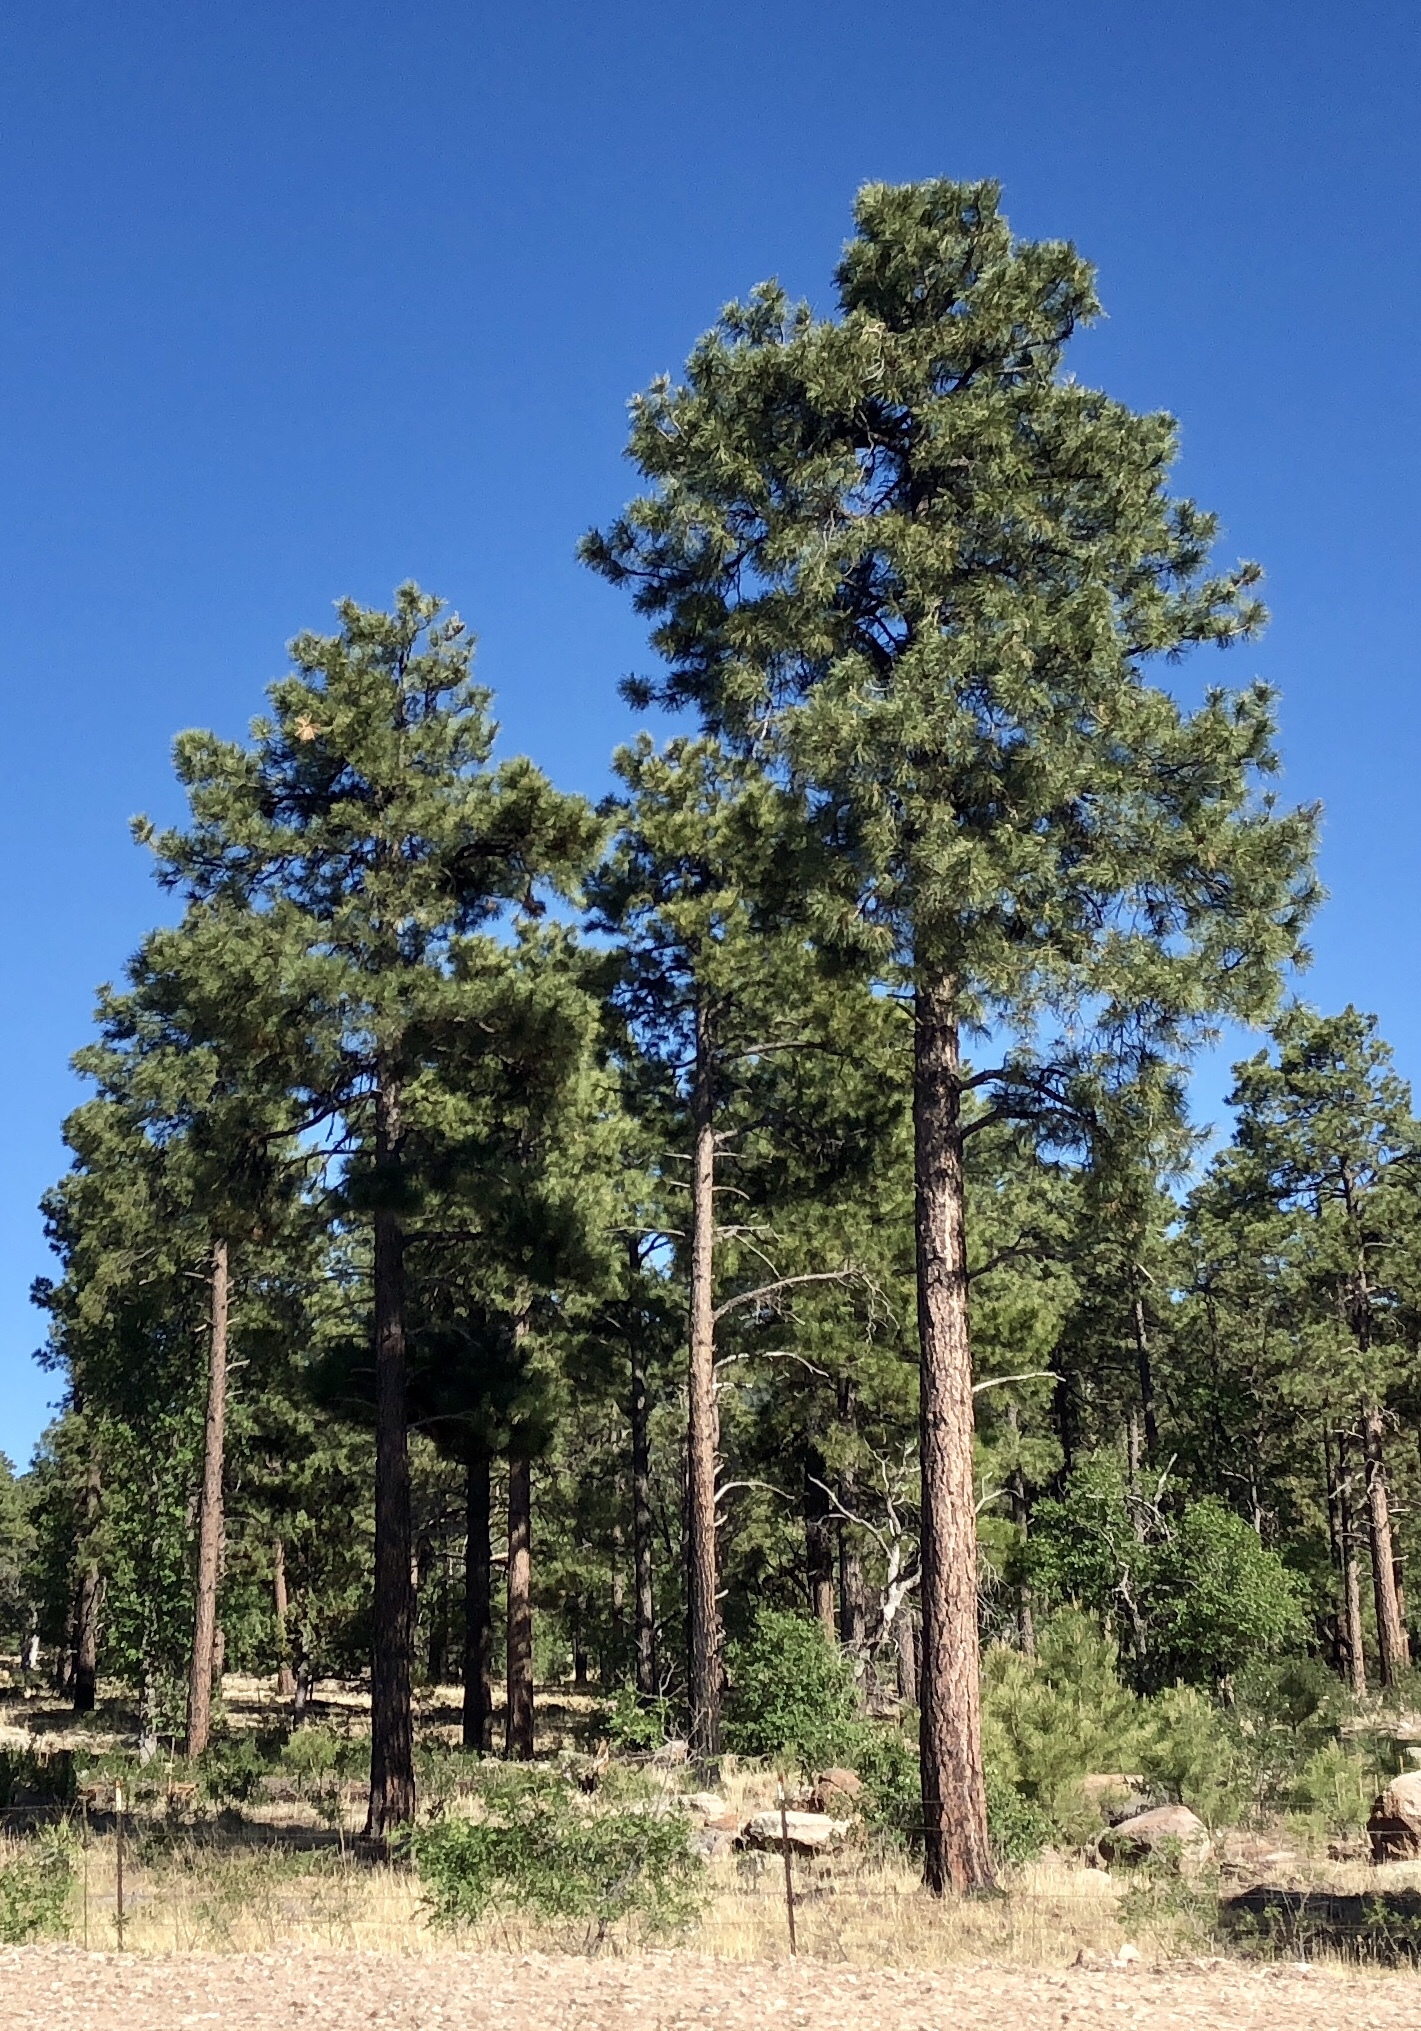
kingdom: Plantae
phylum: Tracheophyta
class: Pinopsida
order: Pinales
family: Pinaceae
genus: Pinus
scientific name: Pinus ponderosa
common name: Western yellow-pine
